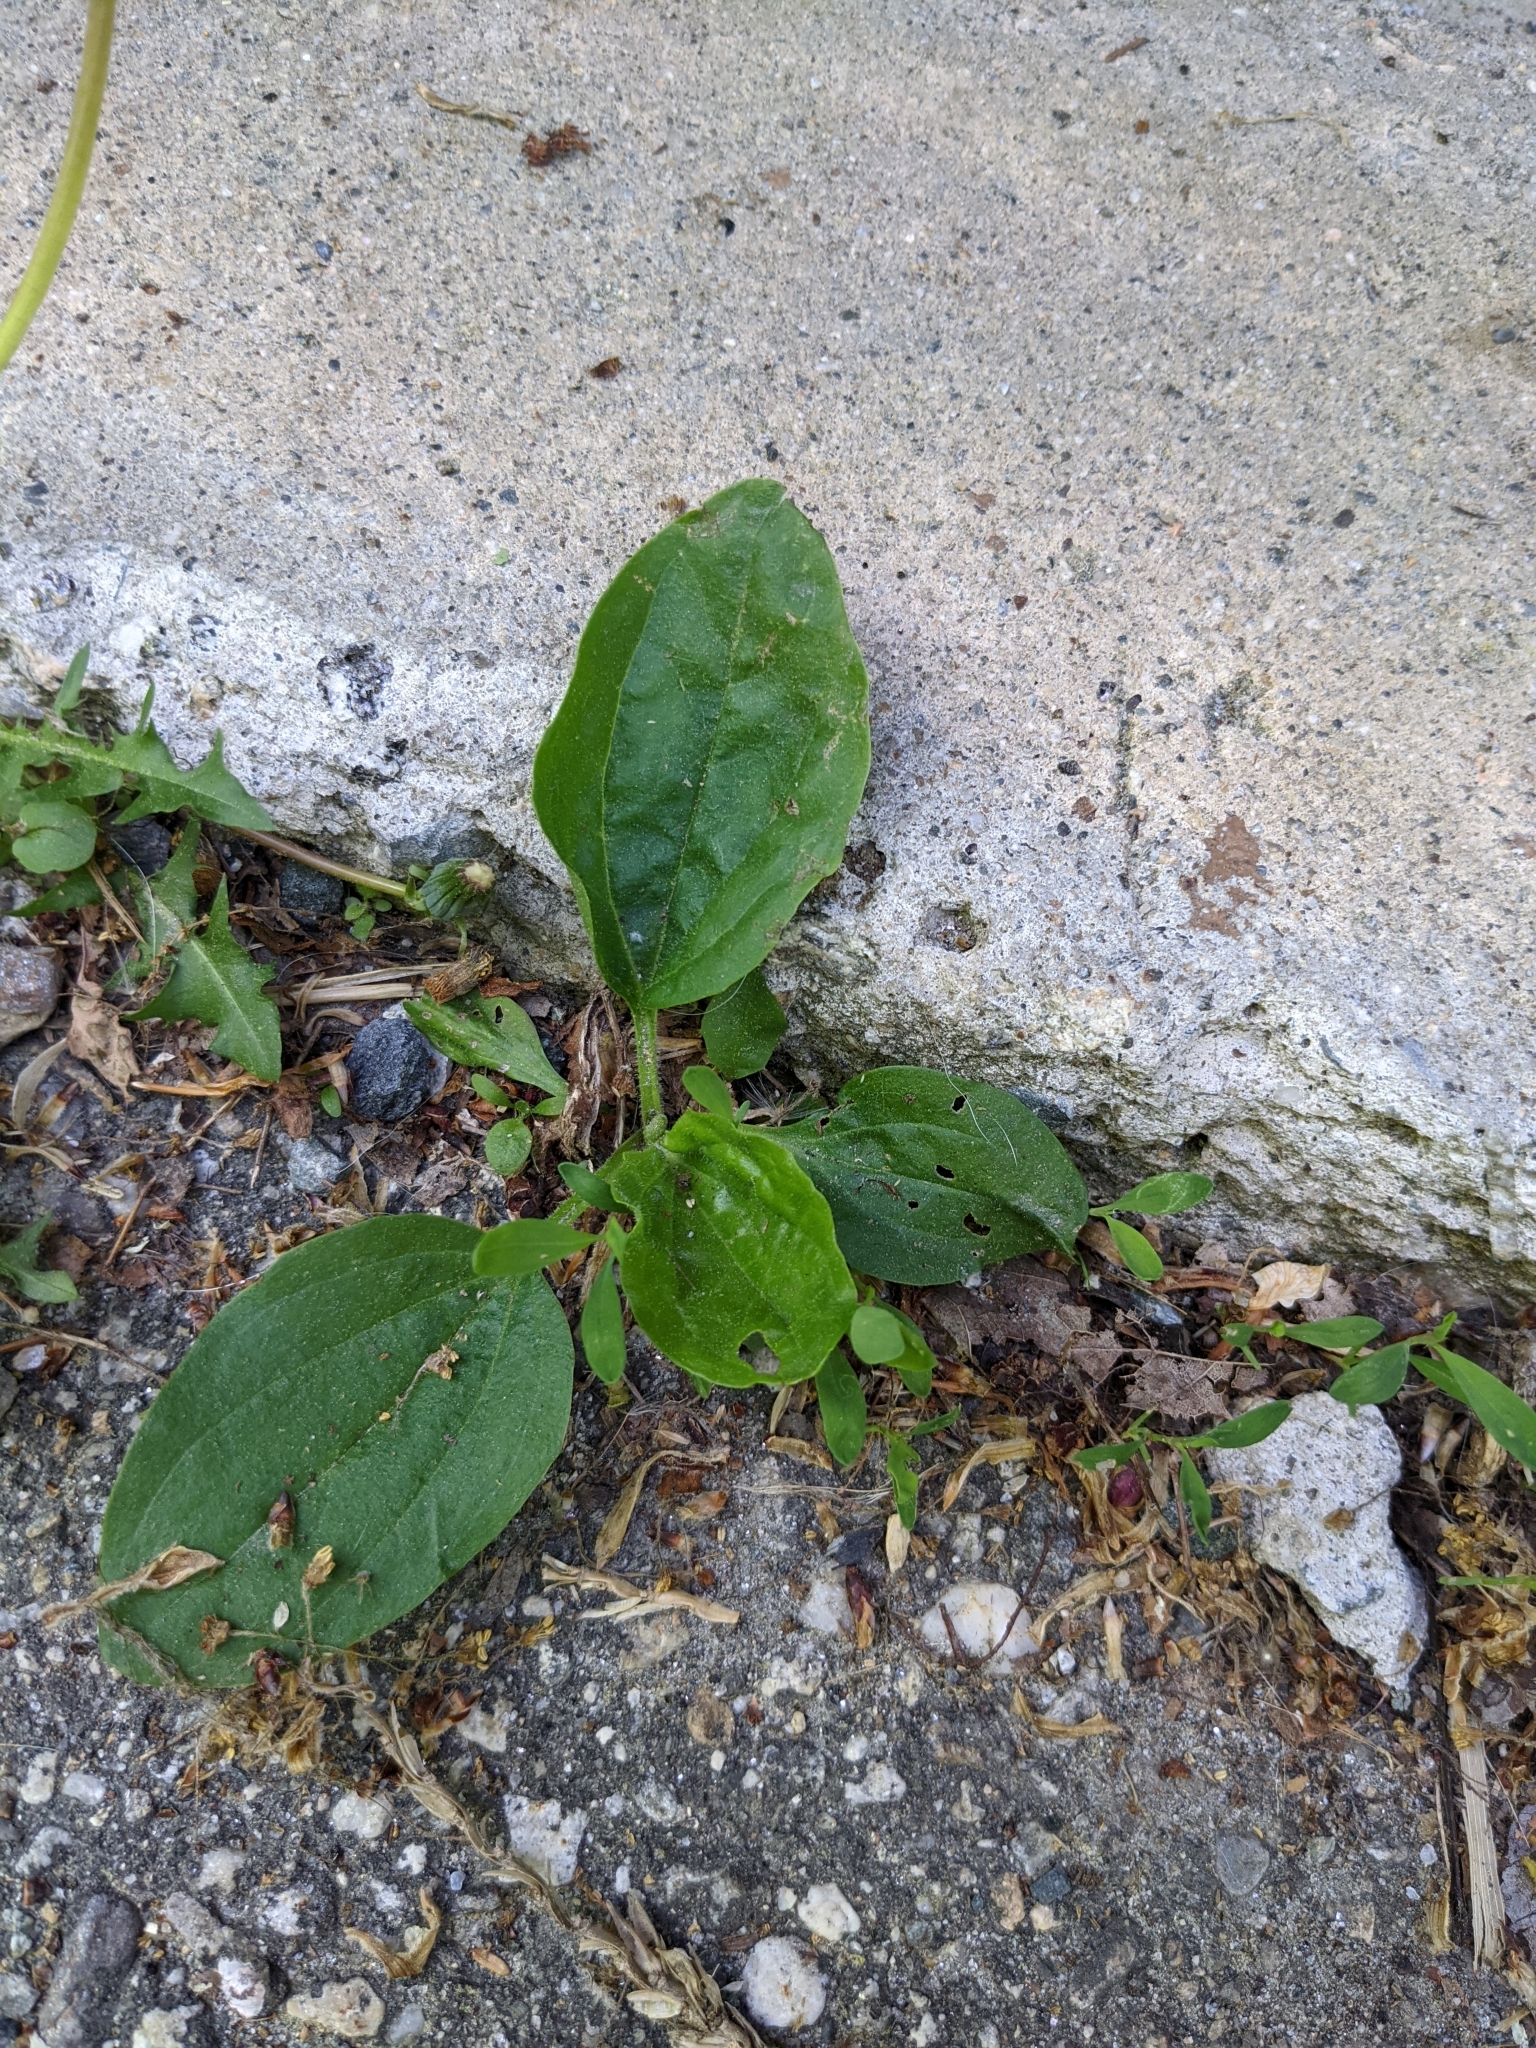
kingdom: Plantae
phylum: Tracheophyta
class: Magnoliopsida
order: Lamiales
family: Plantaginaceae
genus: Plantago
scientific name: Plantago major
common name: Common plantain
